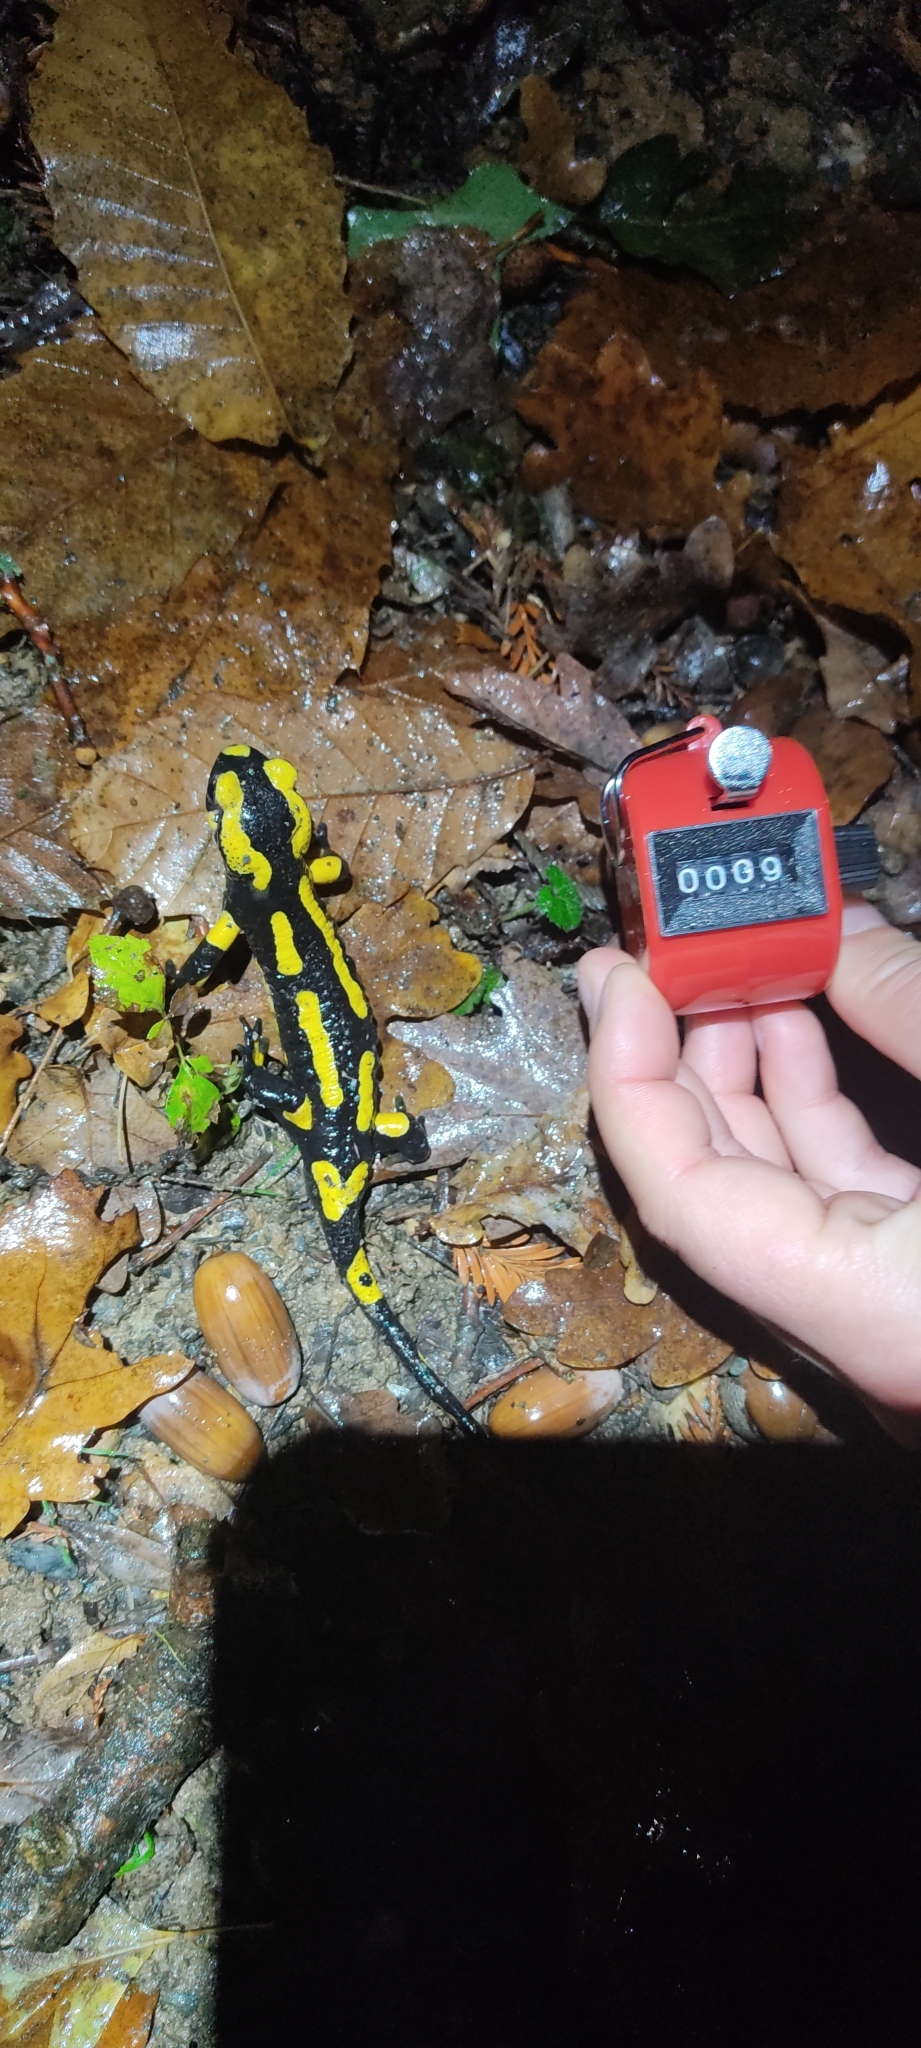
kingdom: Animalia
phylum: Chordata
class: Amphibia
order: Caudata
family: Salamandridae
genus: Salamandra
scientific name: Salamandra salamandra
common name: Fire salamander
